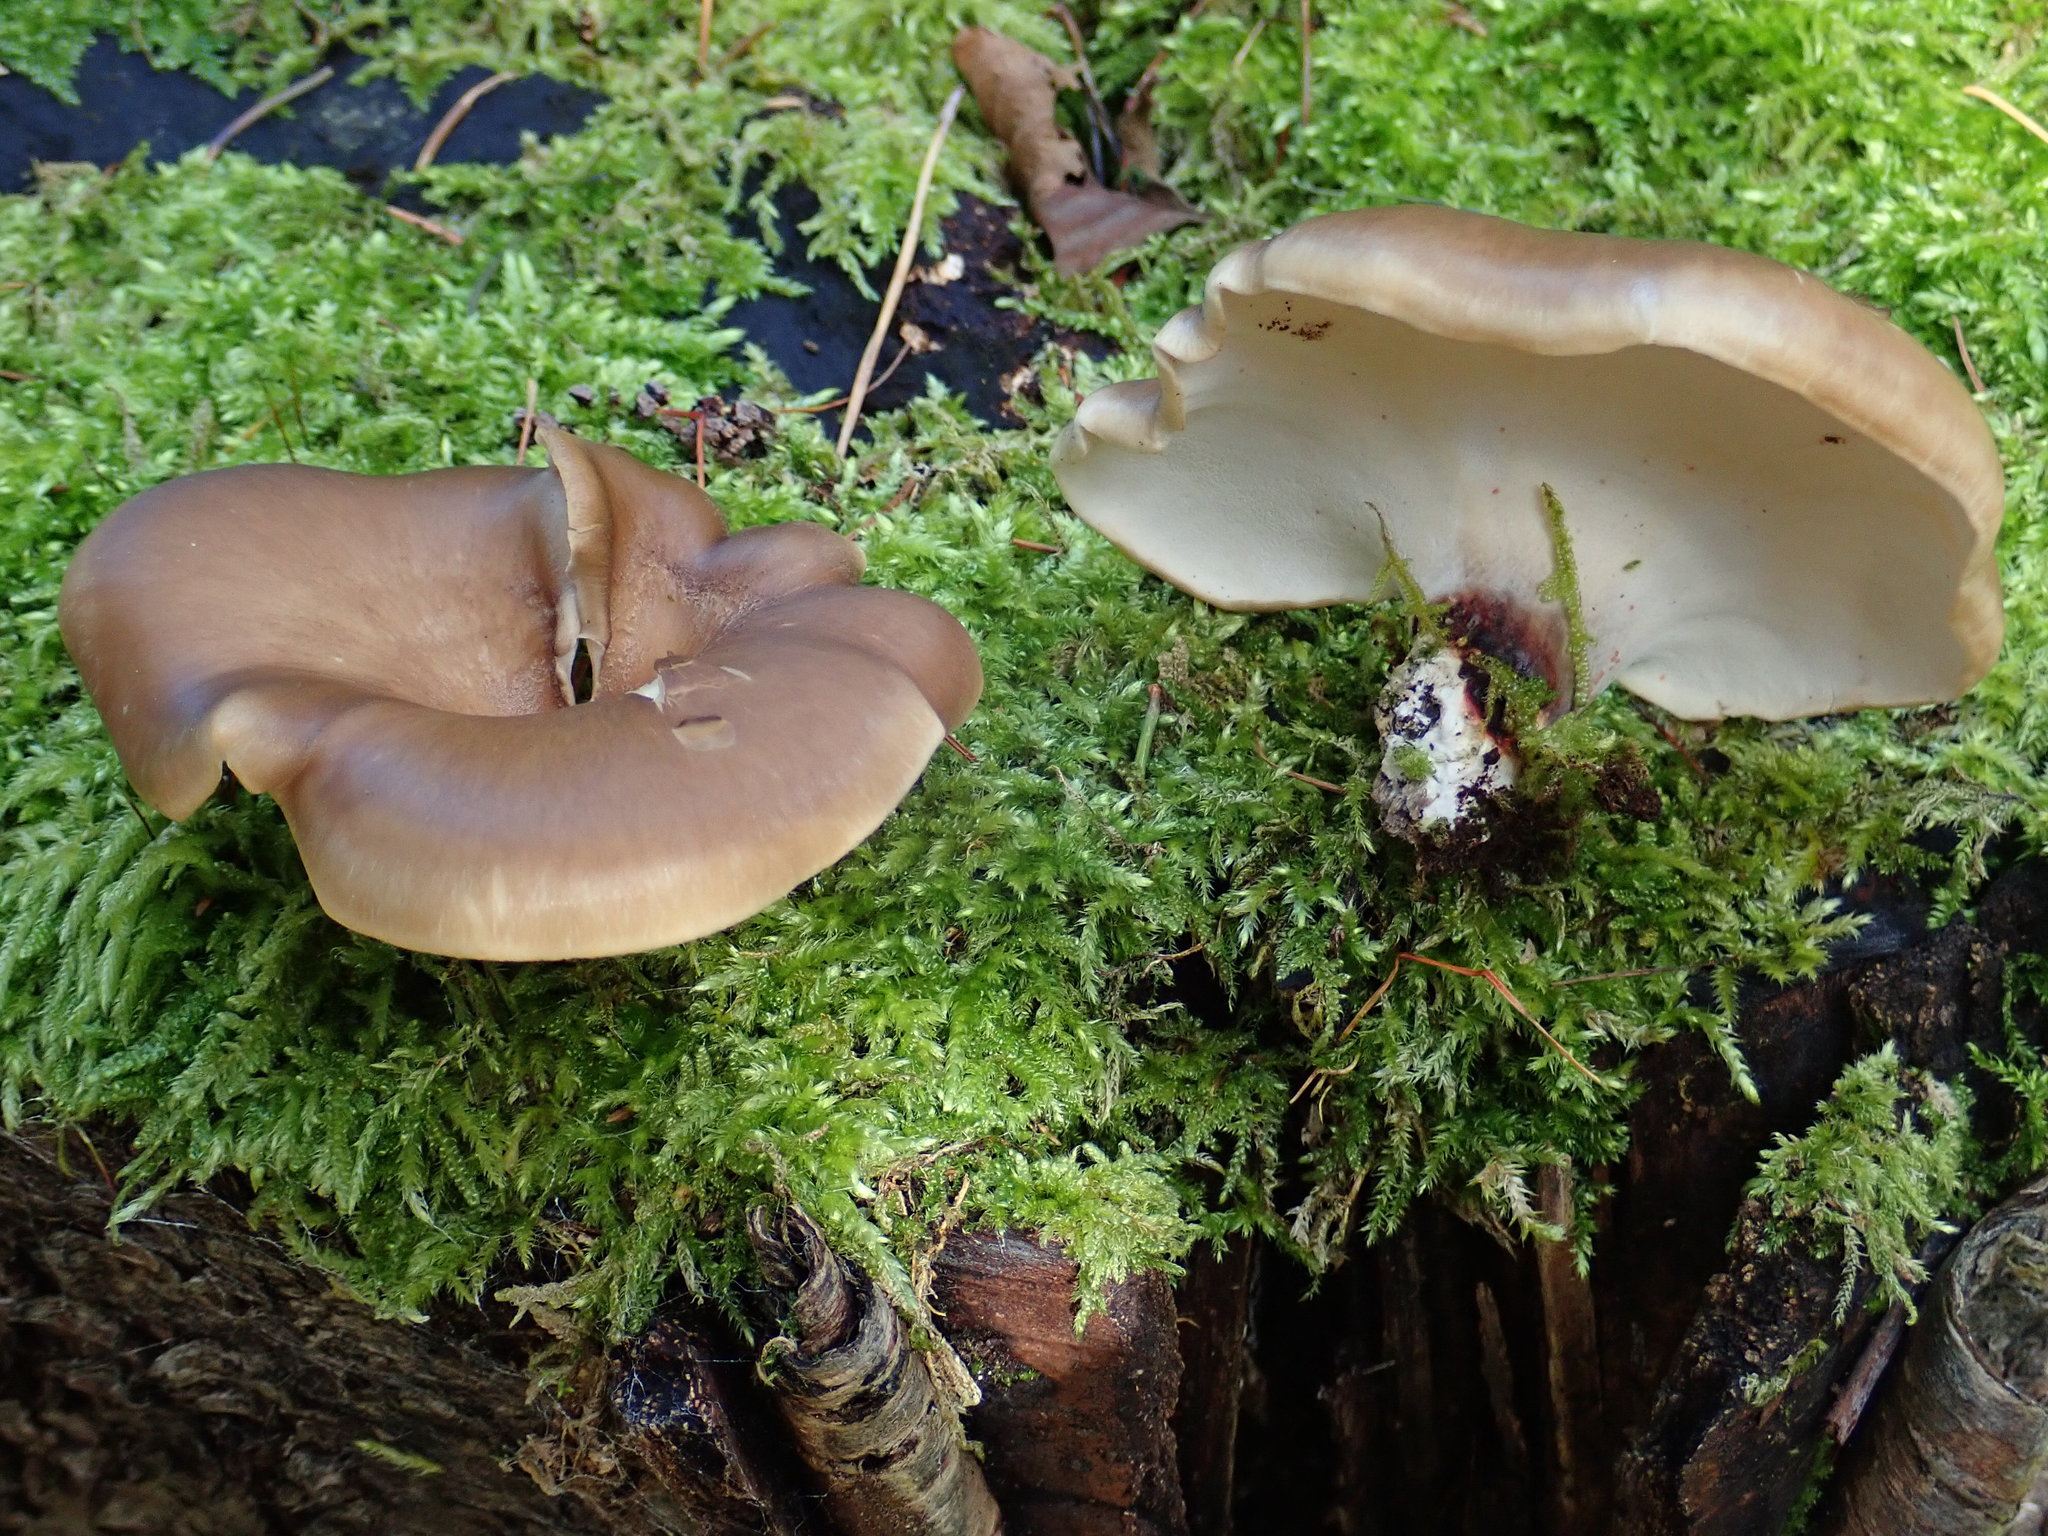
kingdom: Fungi
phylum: Basidiomycota
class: Agaricomycetes
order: Polyporales
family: Polyporaceae
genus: Picipes
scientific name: Picipes badius
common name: Bay polypore
